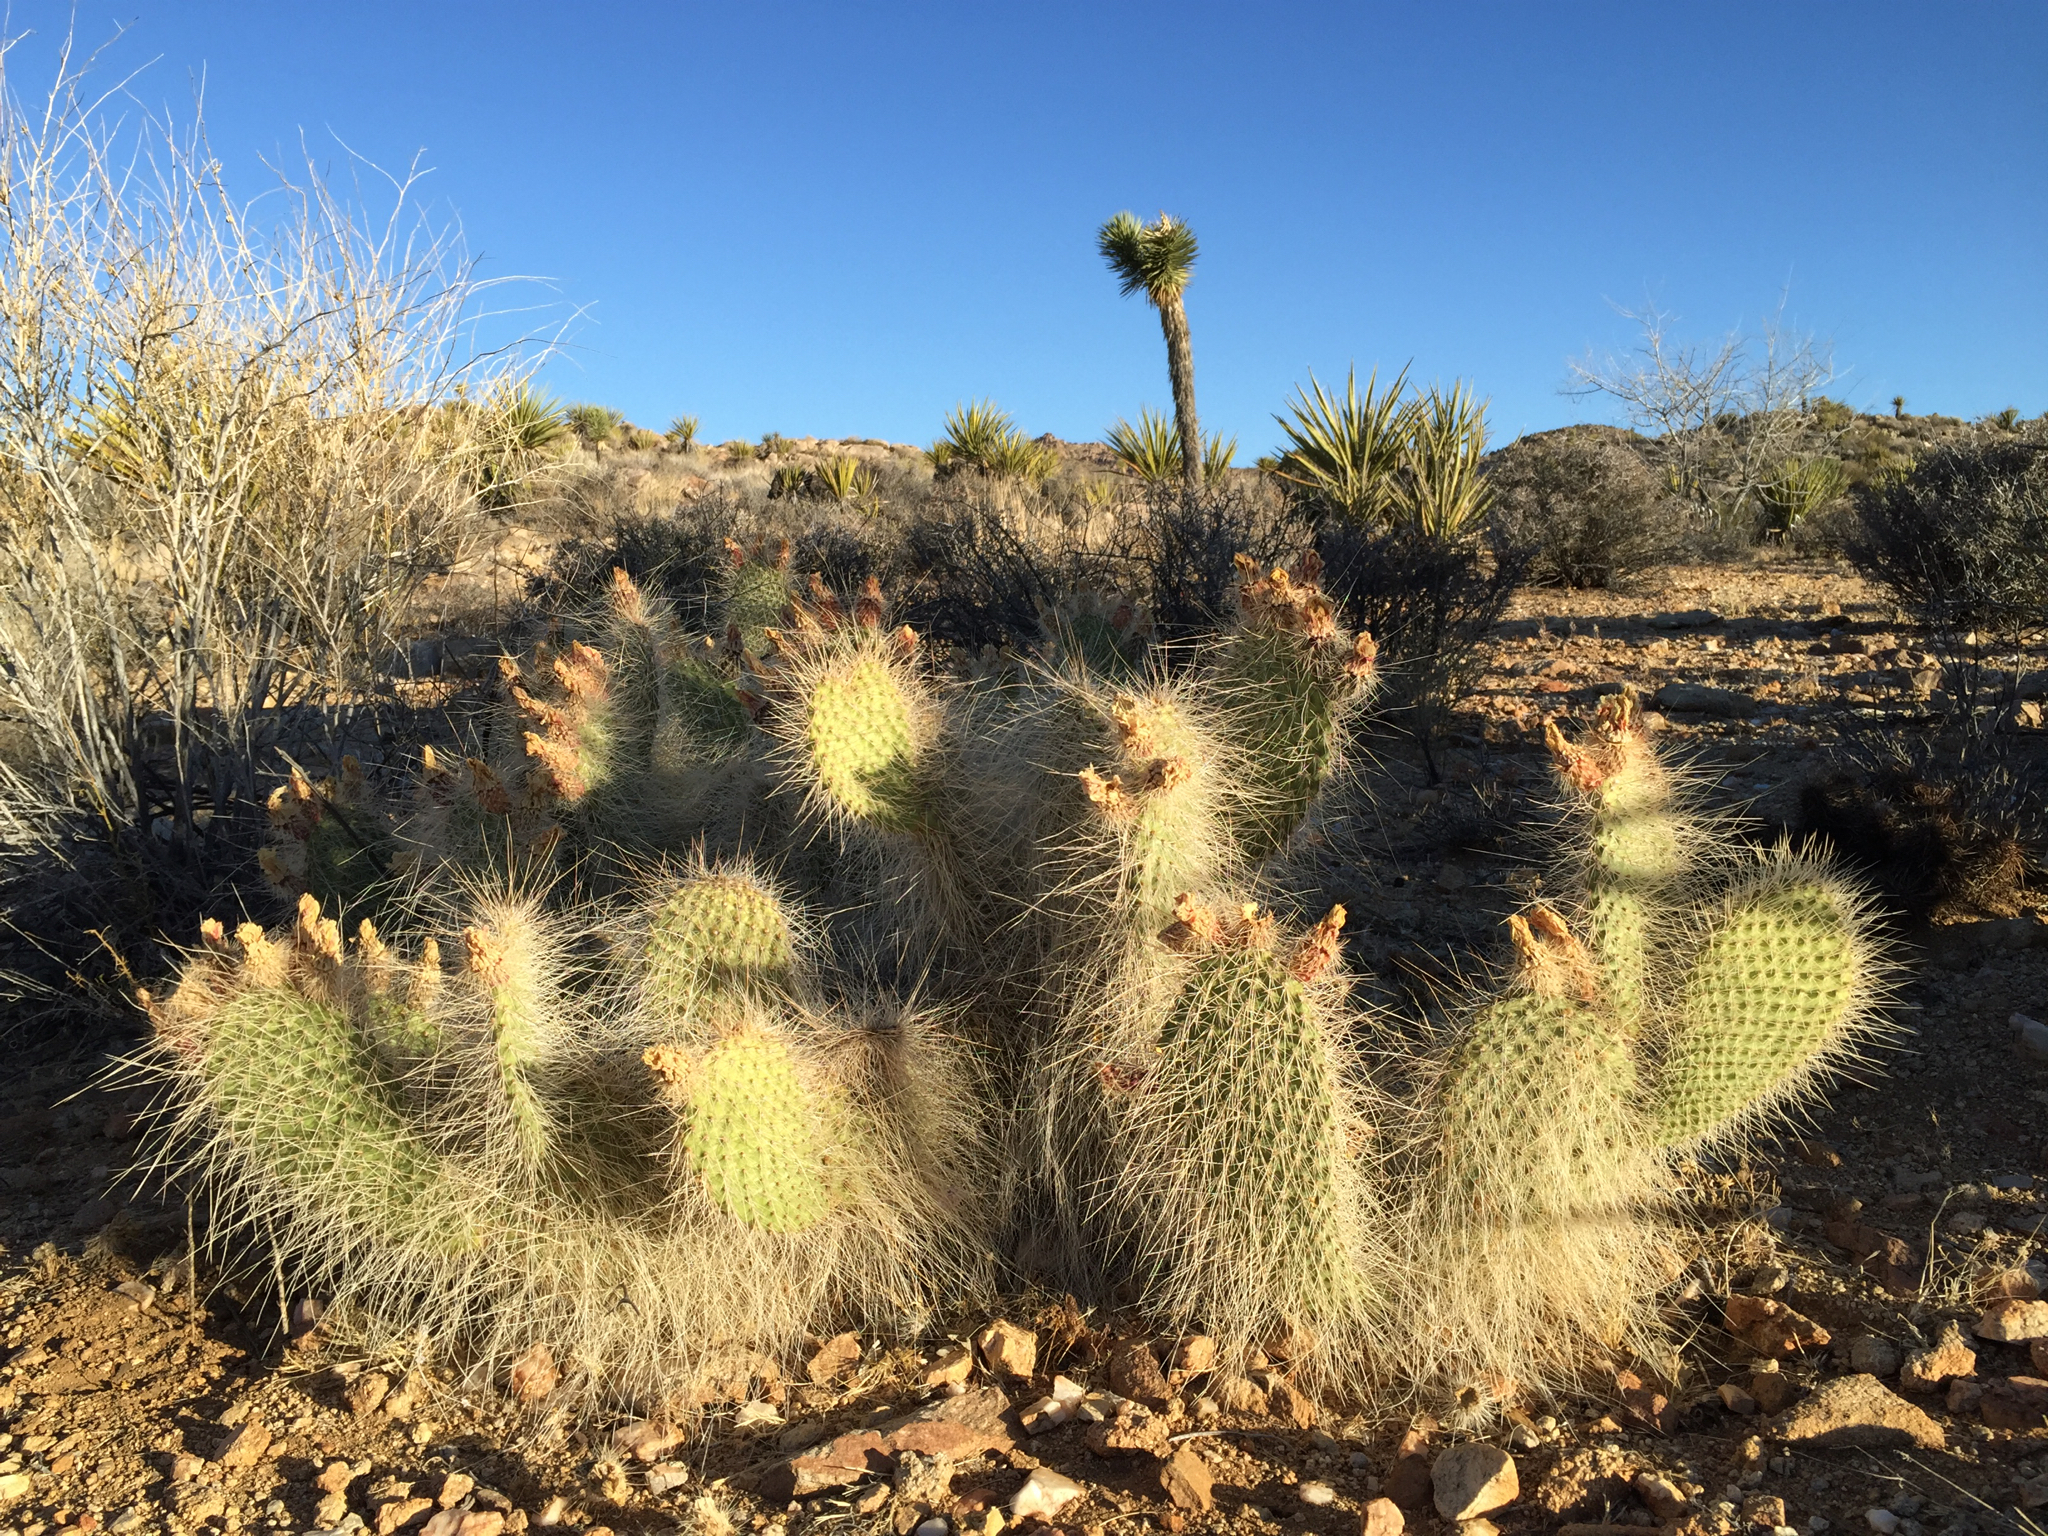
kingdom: Plantae
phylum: Tracheophyta
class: Magnoliopsida
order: Caryophyllales
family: Cactaceae
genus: Opuntia
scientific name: Opuntia polyacantha
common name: Plains prickly-pear
